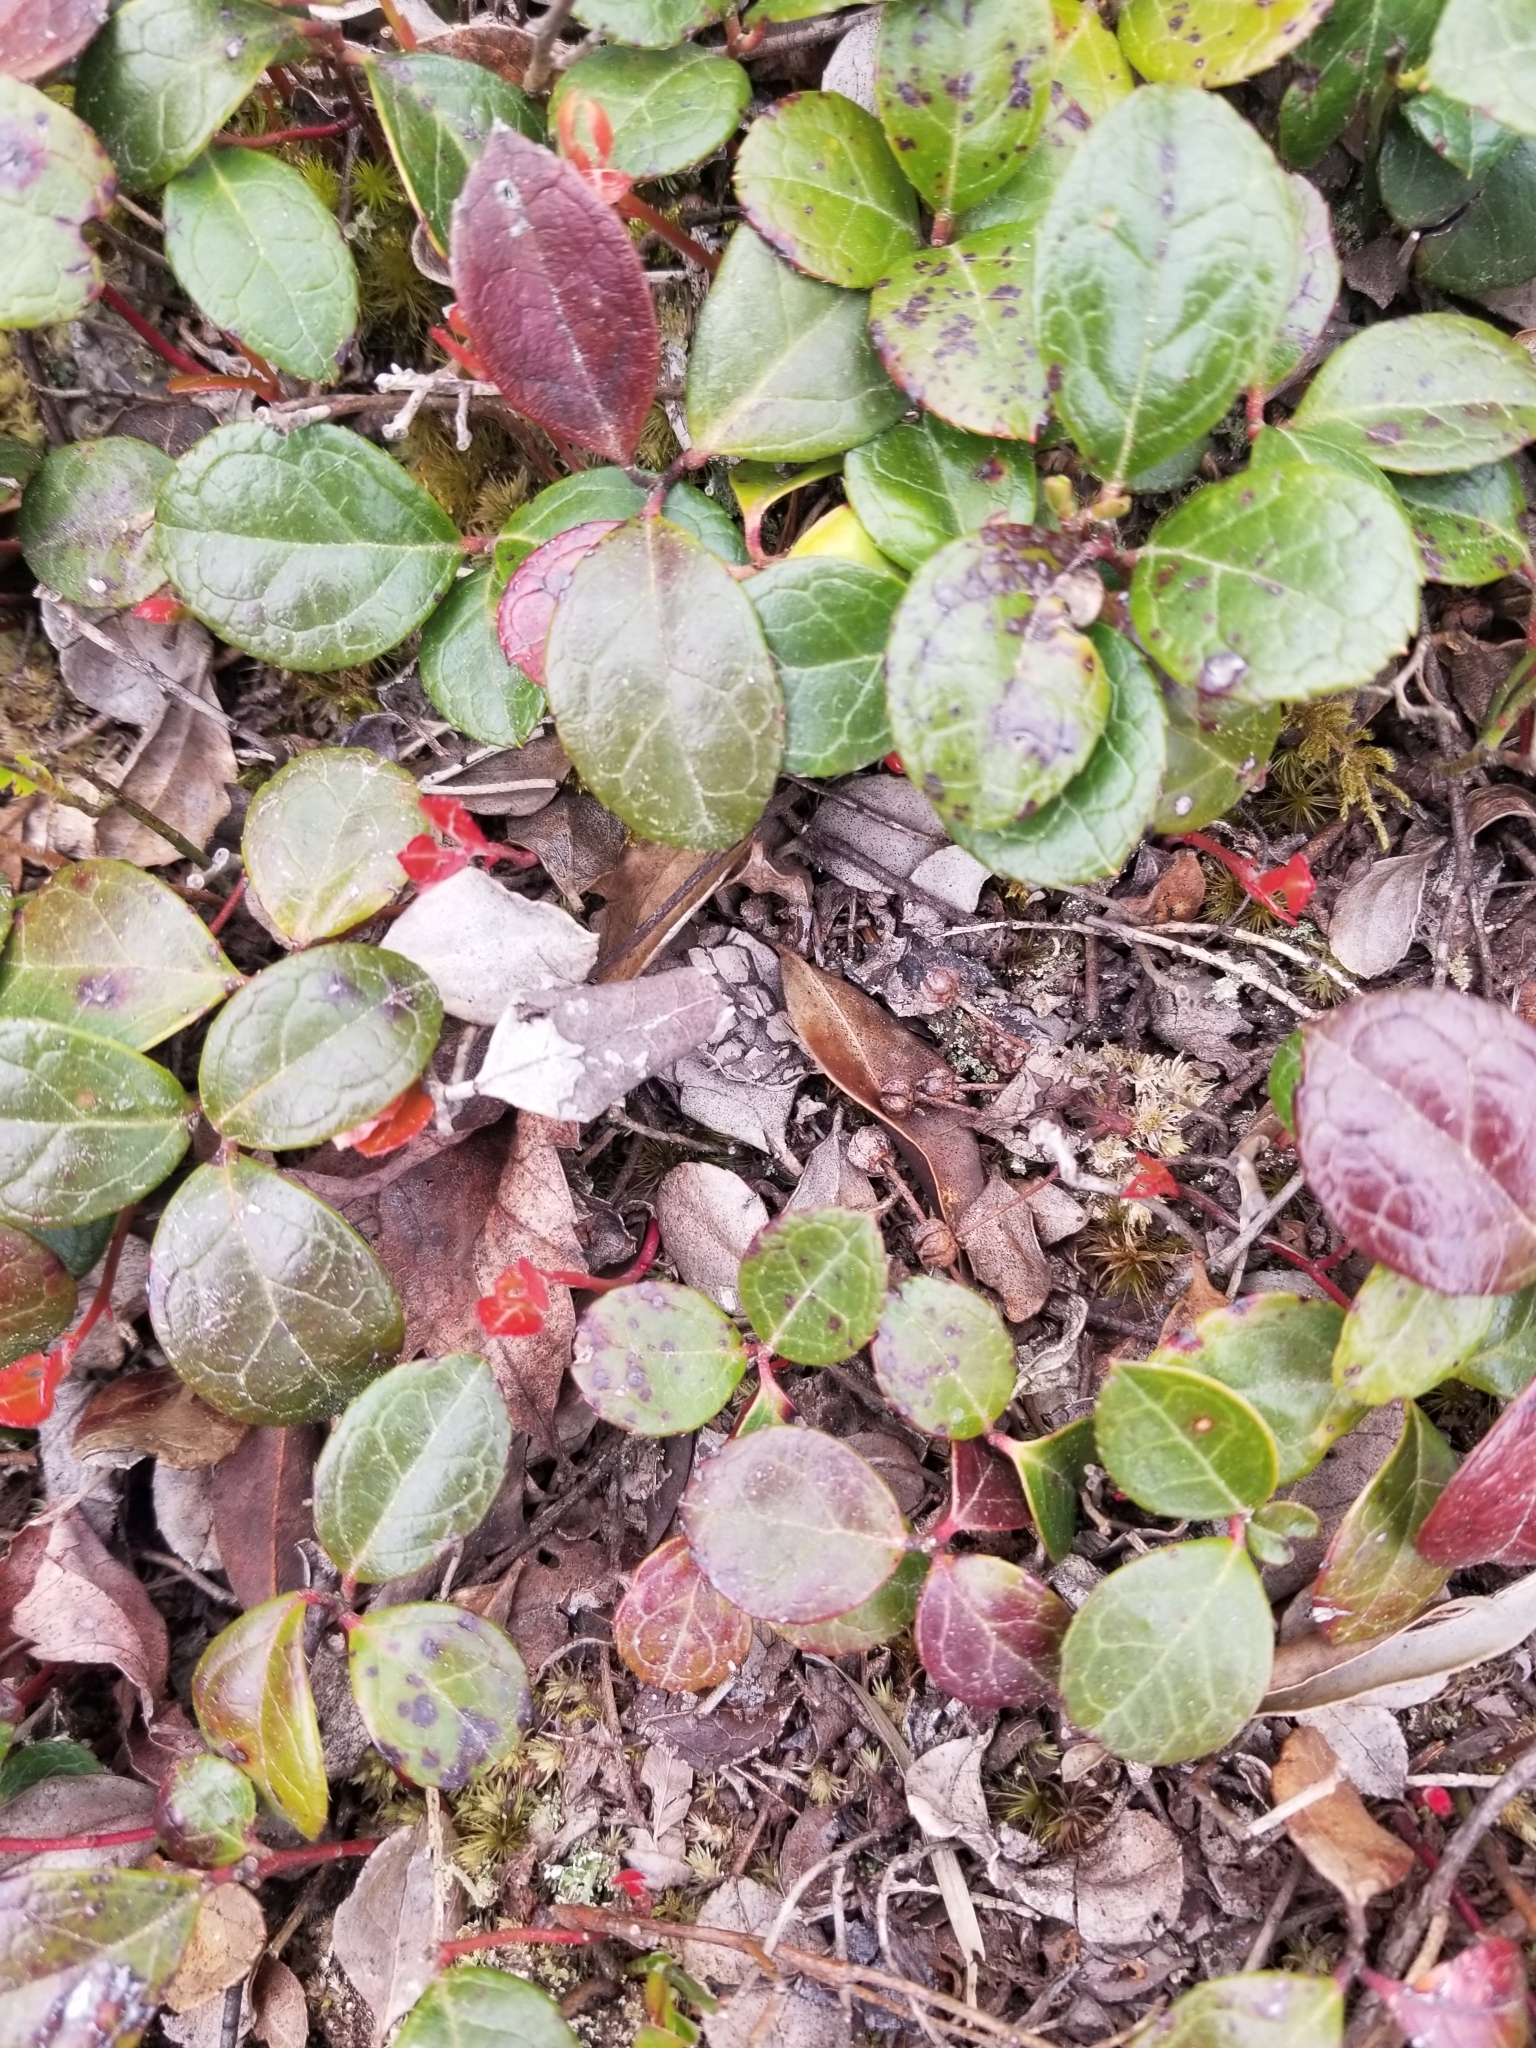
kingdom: Plantae
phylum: Tracheophyta
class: Magnoliopsida
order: Ericales
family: Ericaceae
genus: Gaultheria
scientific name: Gaultheria procumbens
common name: Checkerberry
